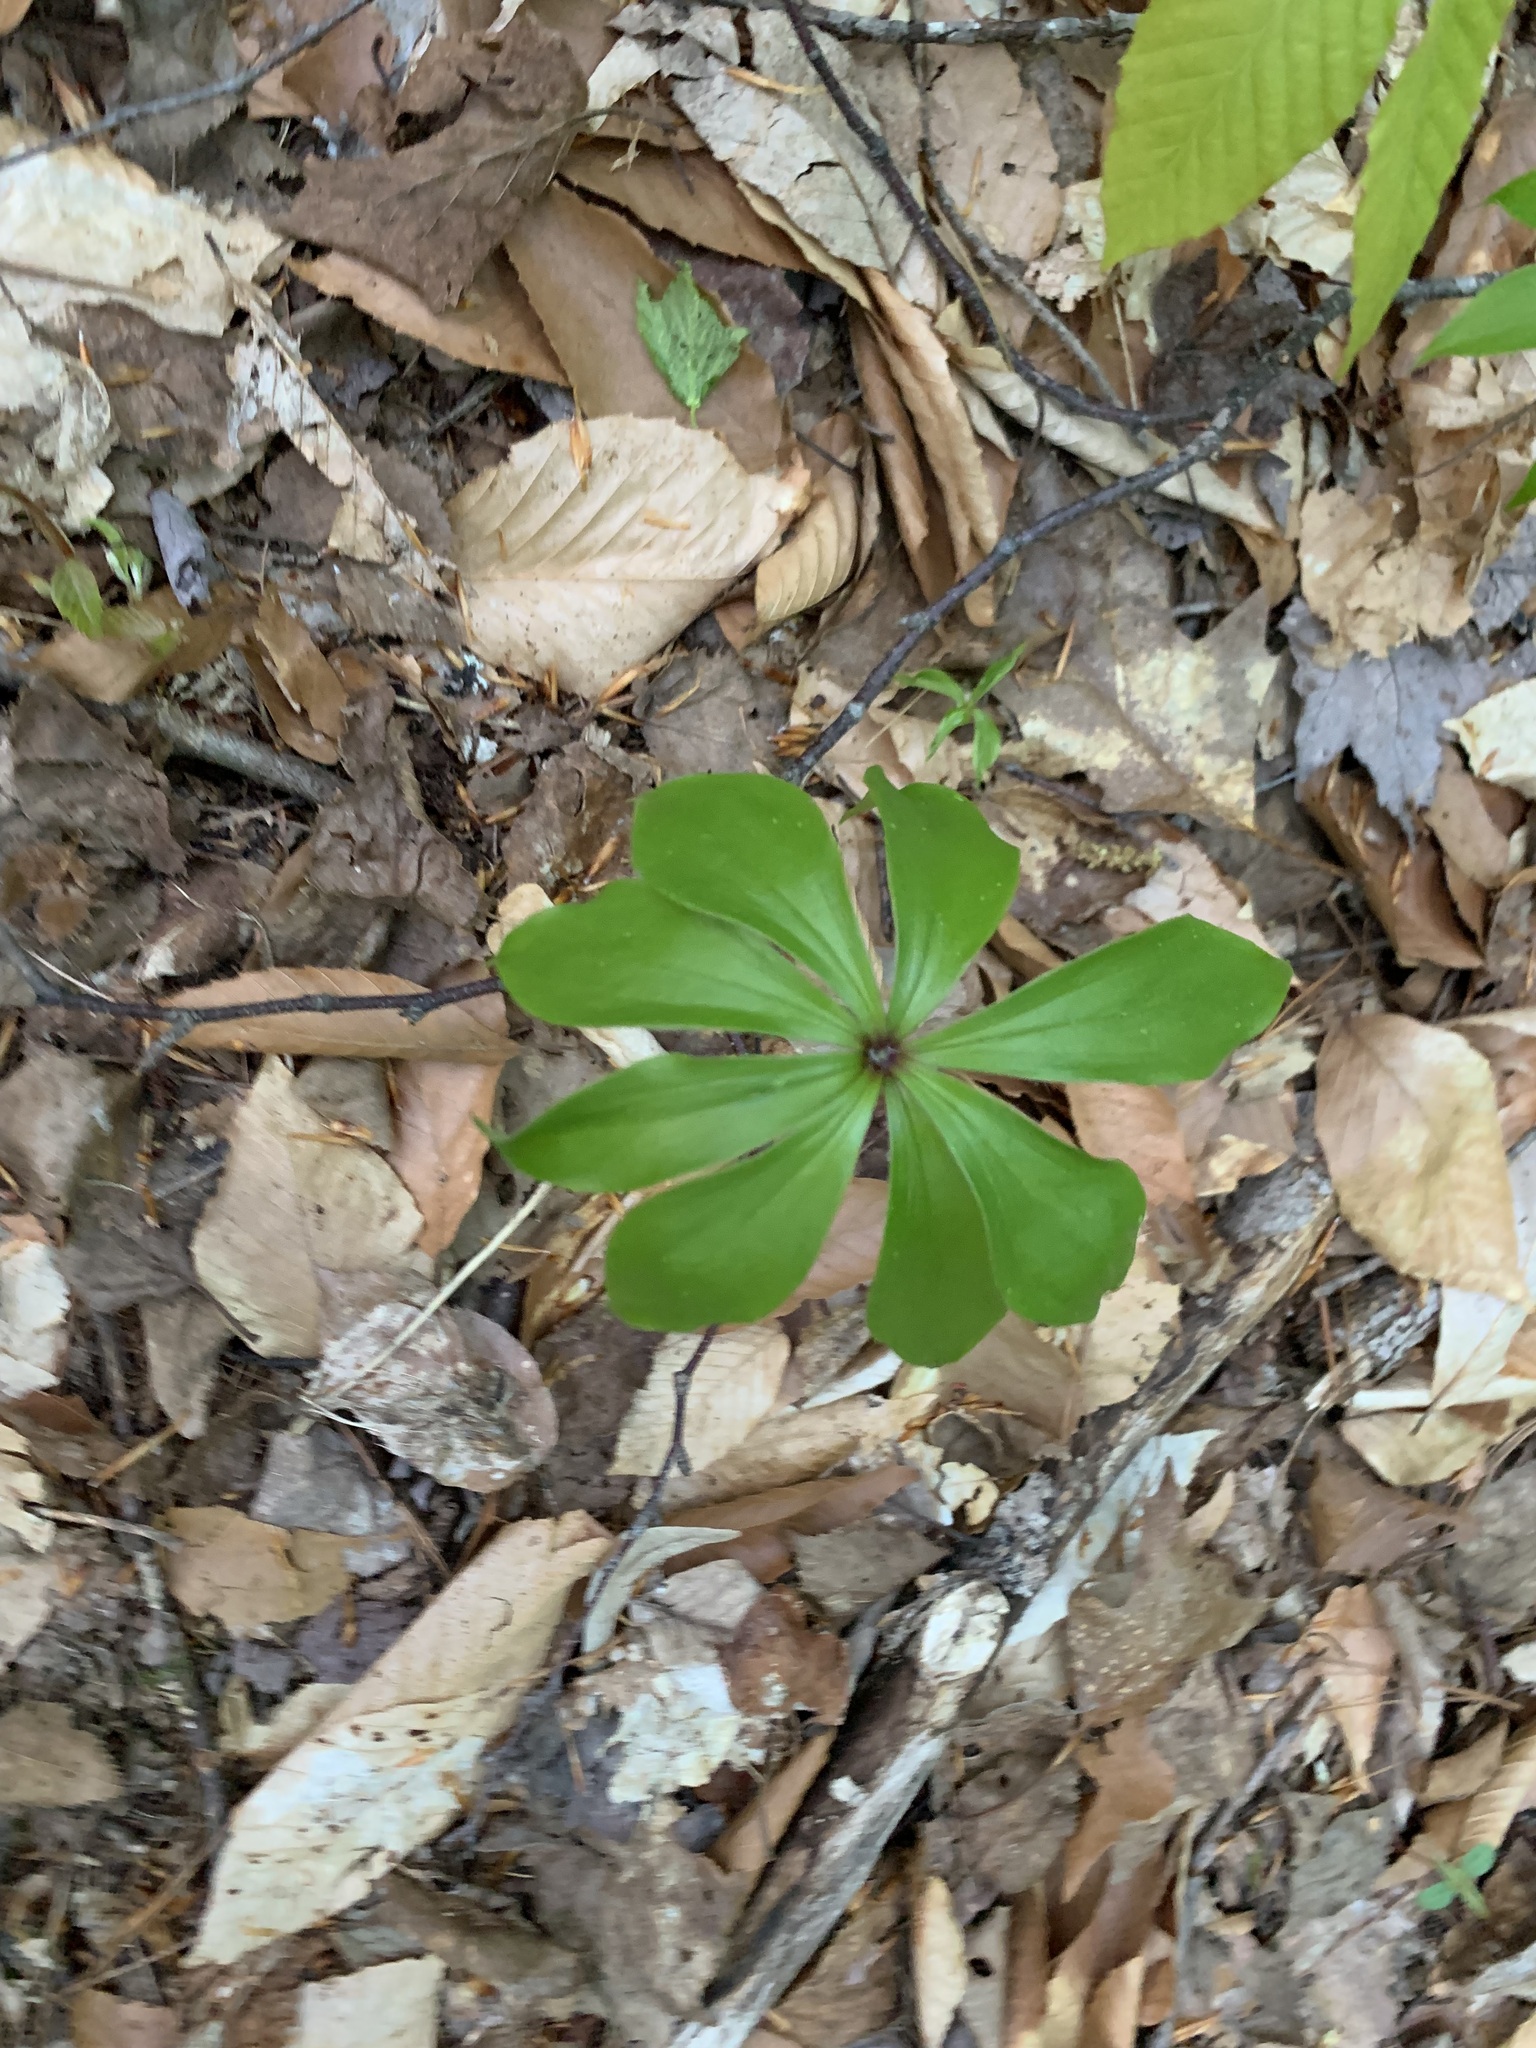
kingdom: Plantae
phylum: Tracheophyta
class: Liliopsida
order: Liliales
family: Liliaceae
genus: Medeola
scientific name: Medeola virginiana
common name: Indian cucumber-root
